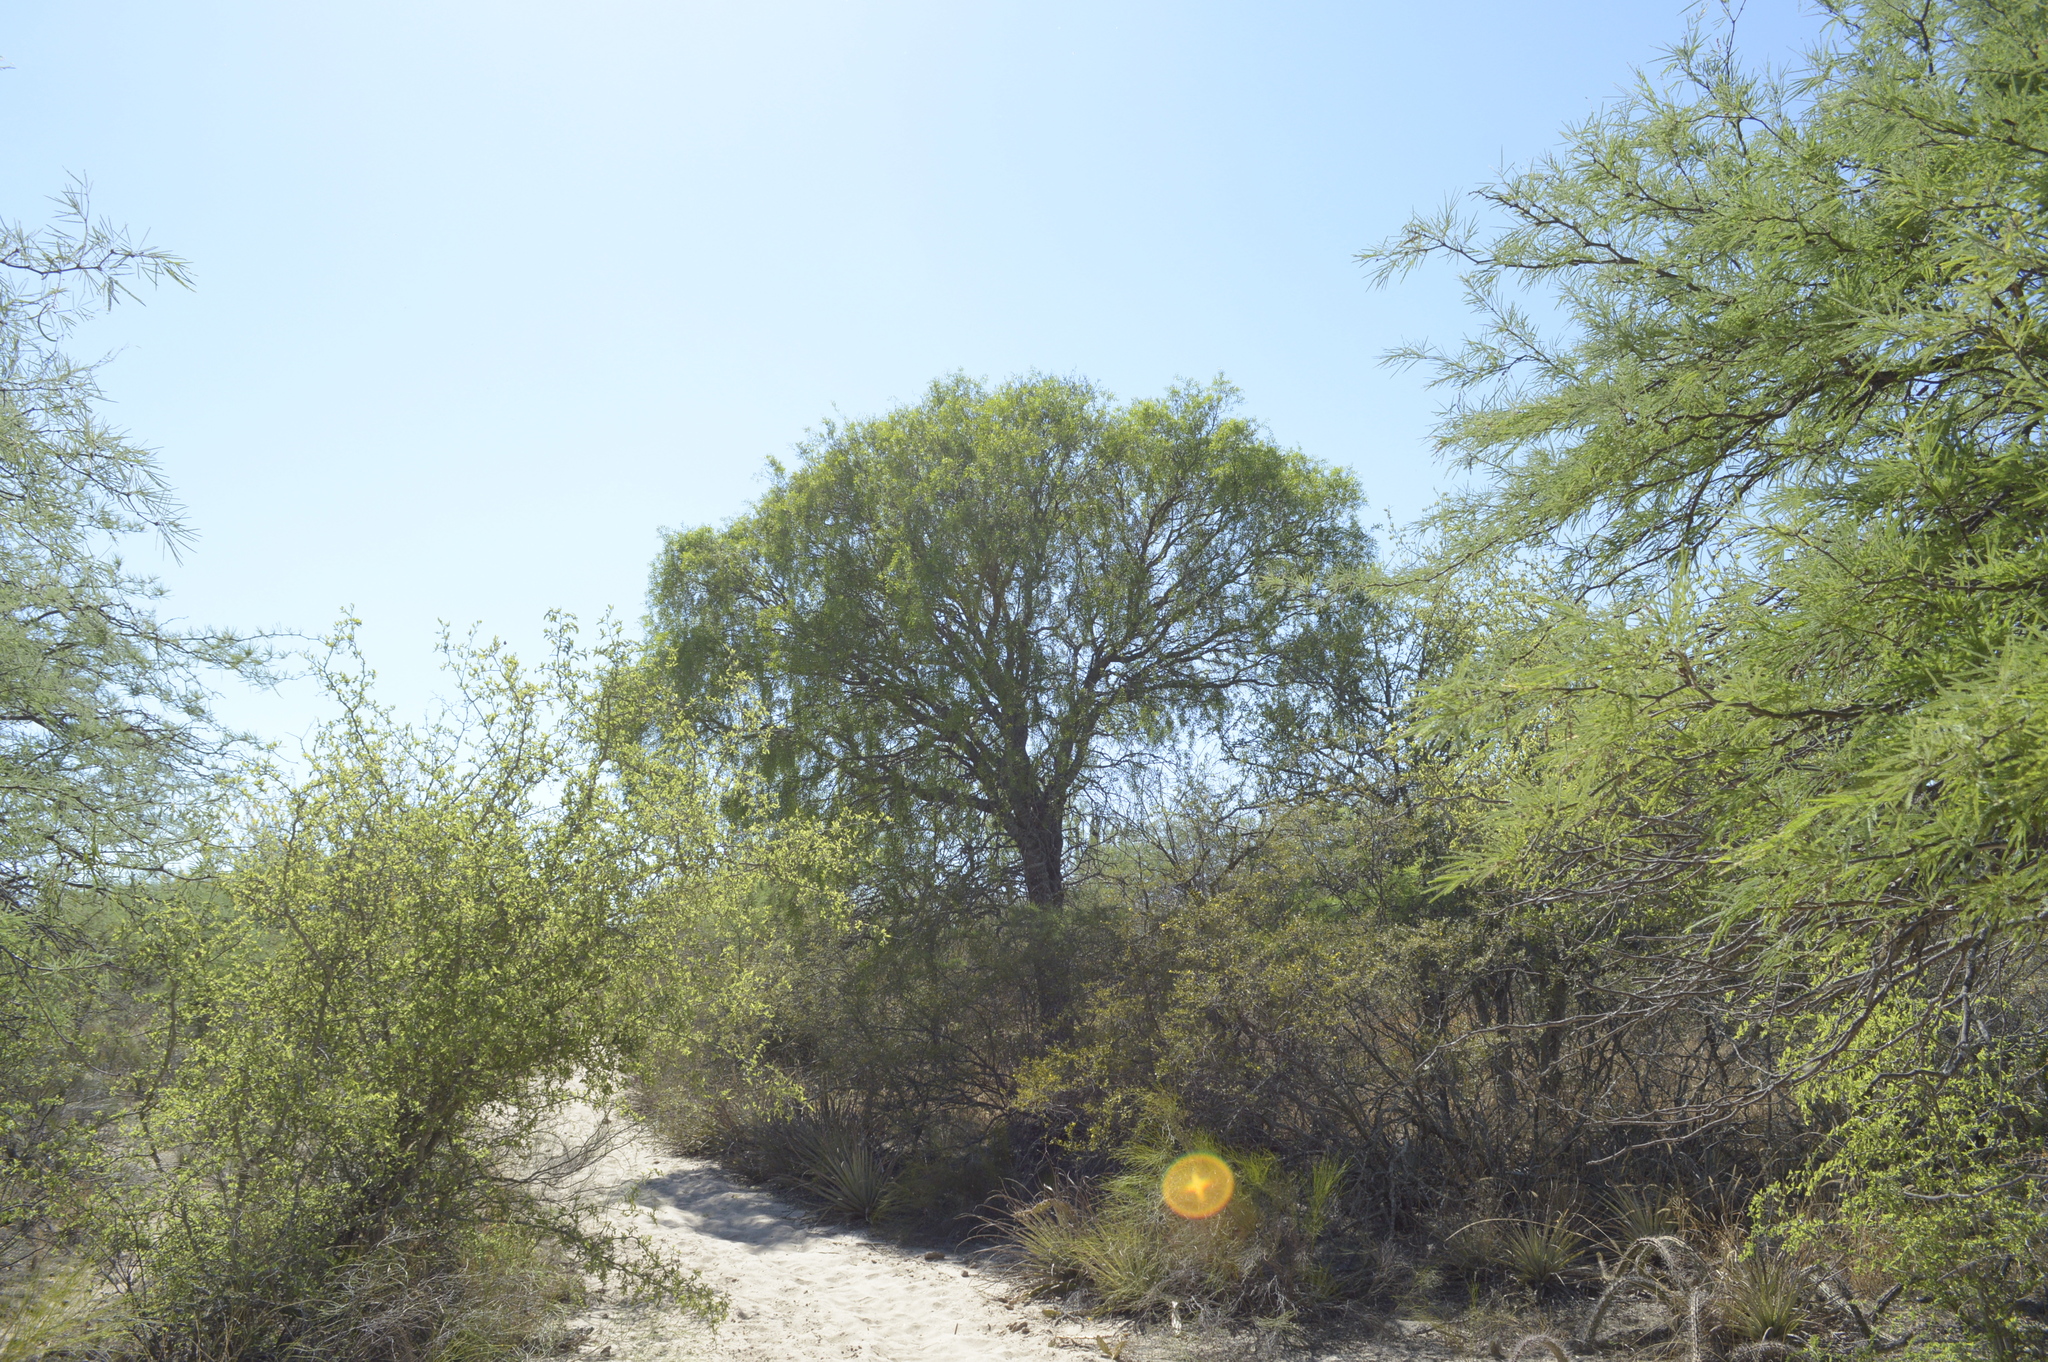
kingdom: Plantae
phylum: Tracheophyta
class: Magnoliopsida
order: Gentianales
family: Apocynaceae
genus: Aspidosperma
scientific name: Aspidosperma quebracho-blanco
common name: White quebracho
